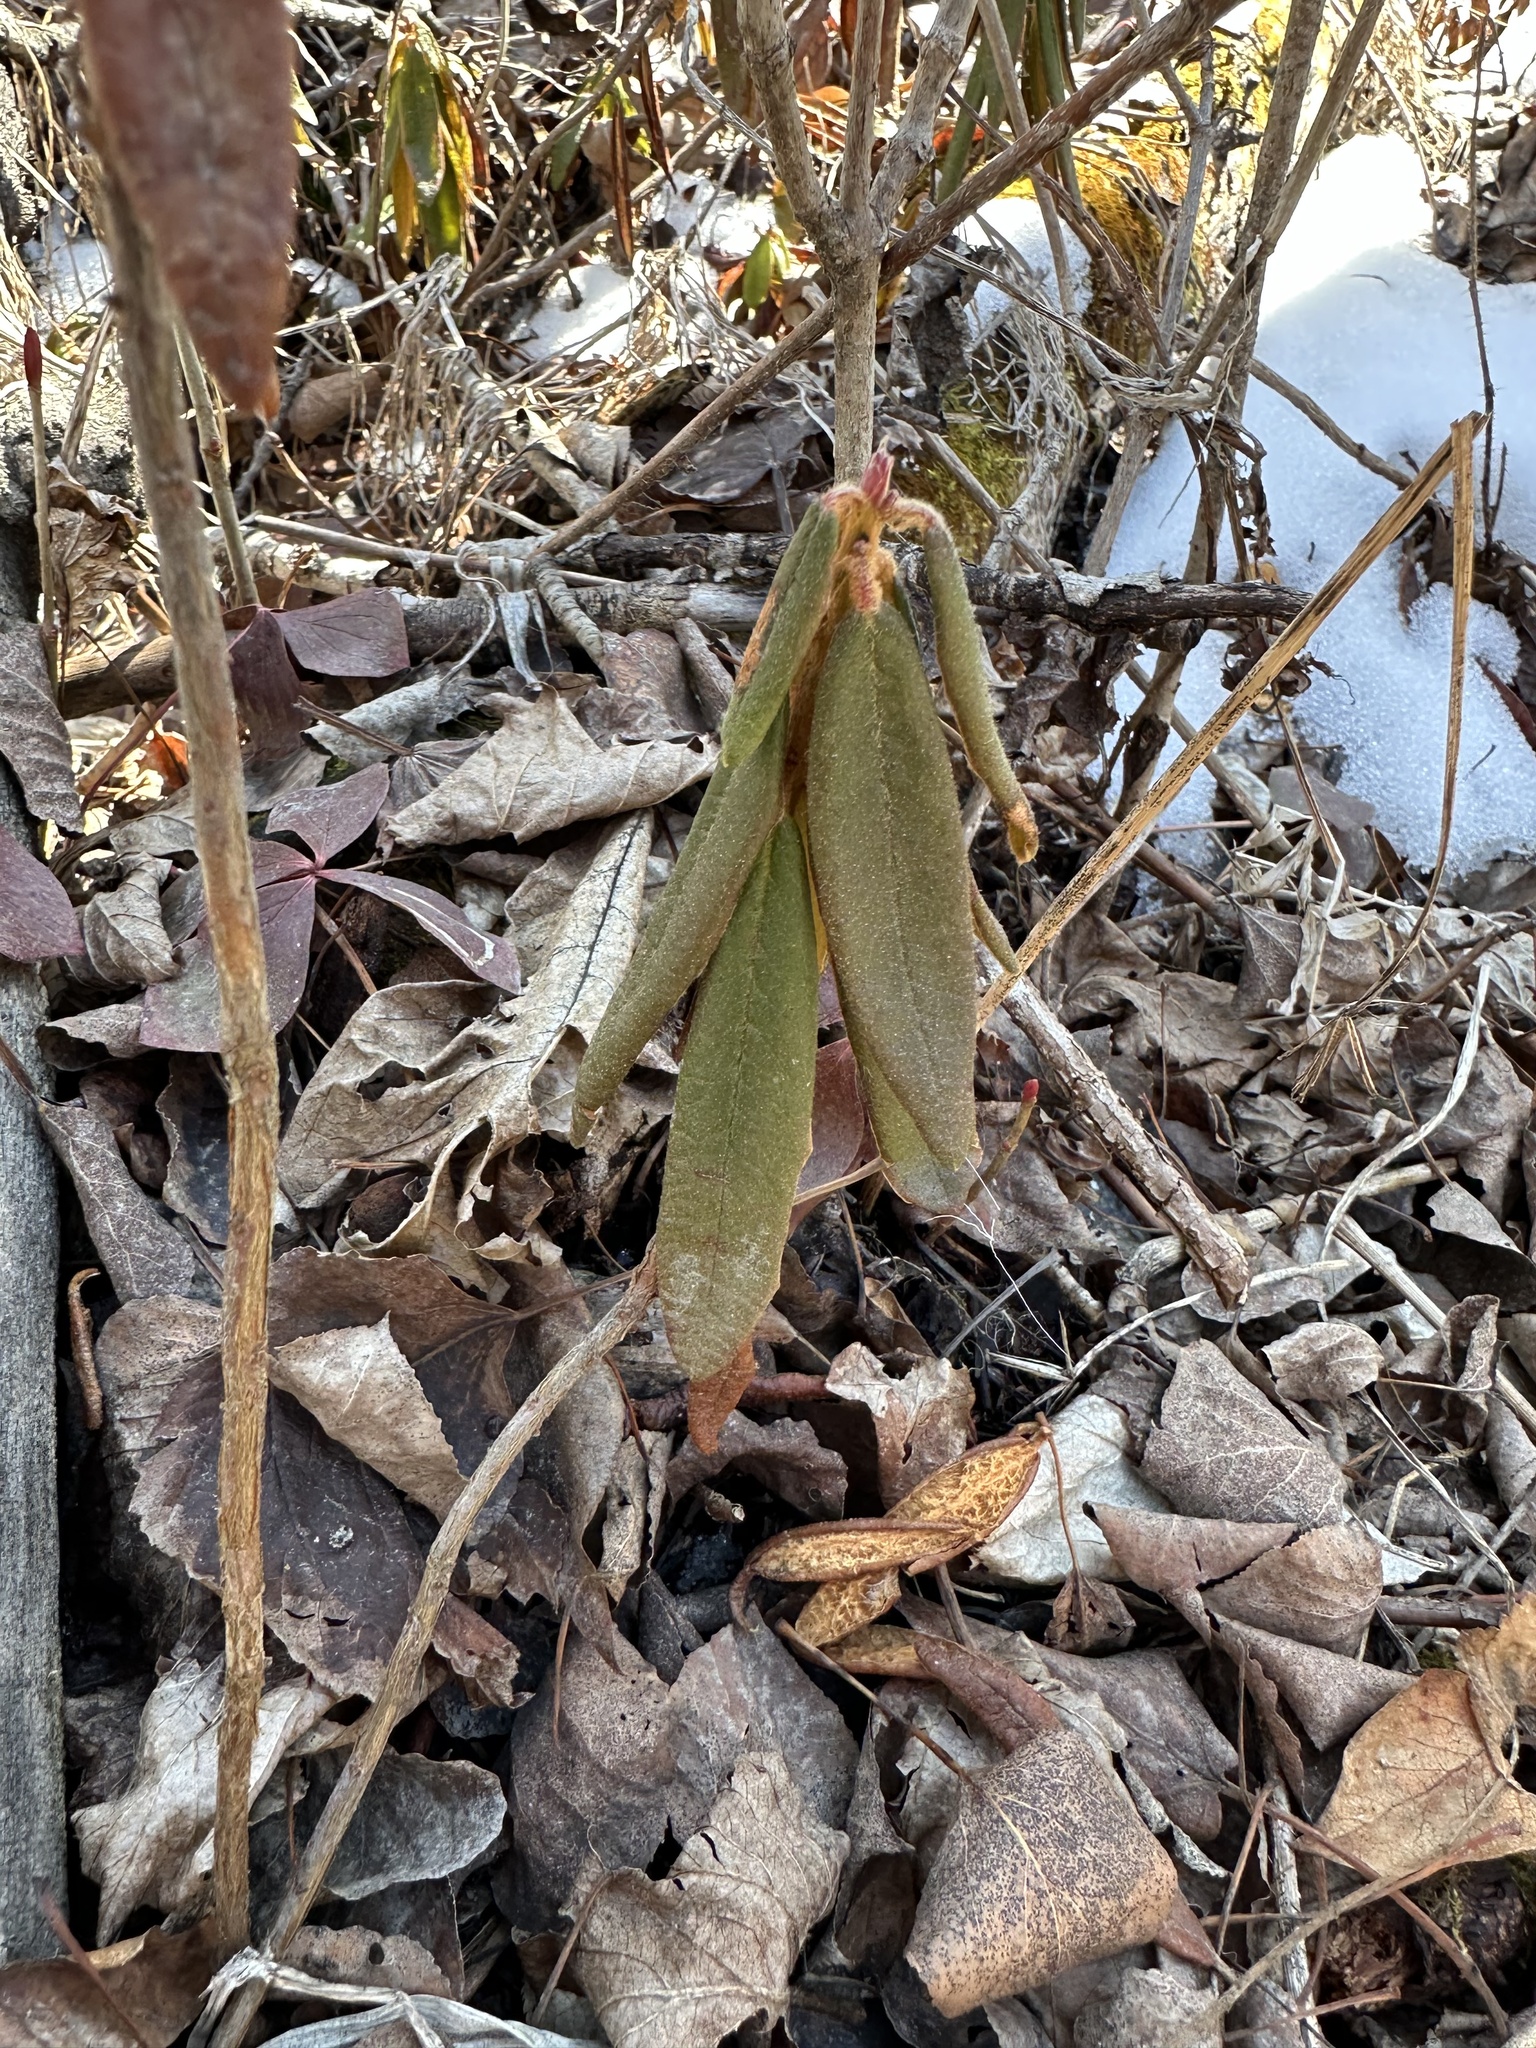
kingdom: Plantae
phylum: Tracheophyta
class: Magnoliopsida
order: Ericales
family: Ericaceae
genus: Rhododendron
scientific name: Rhododendron groenlandicum
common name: Bog labrador tea
